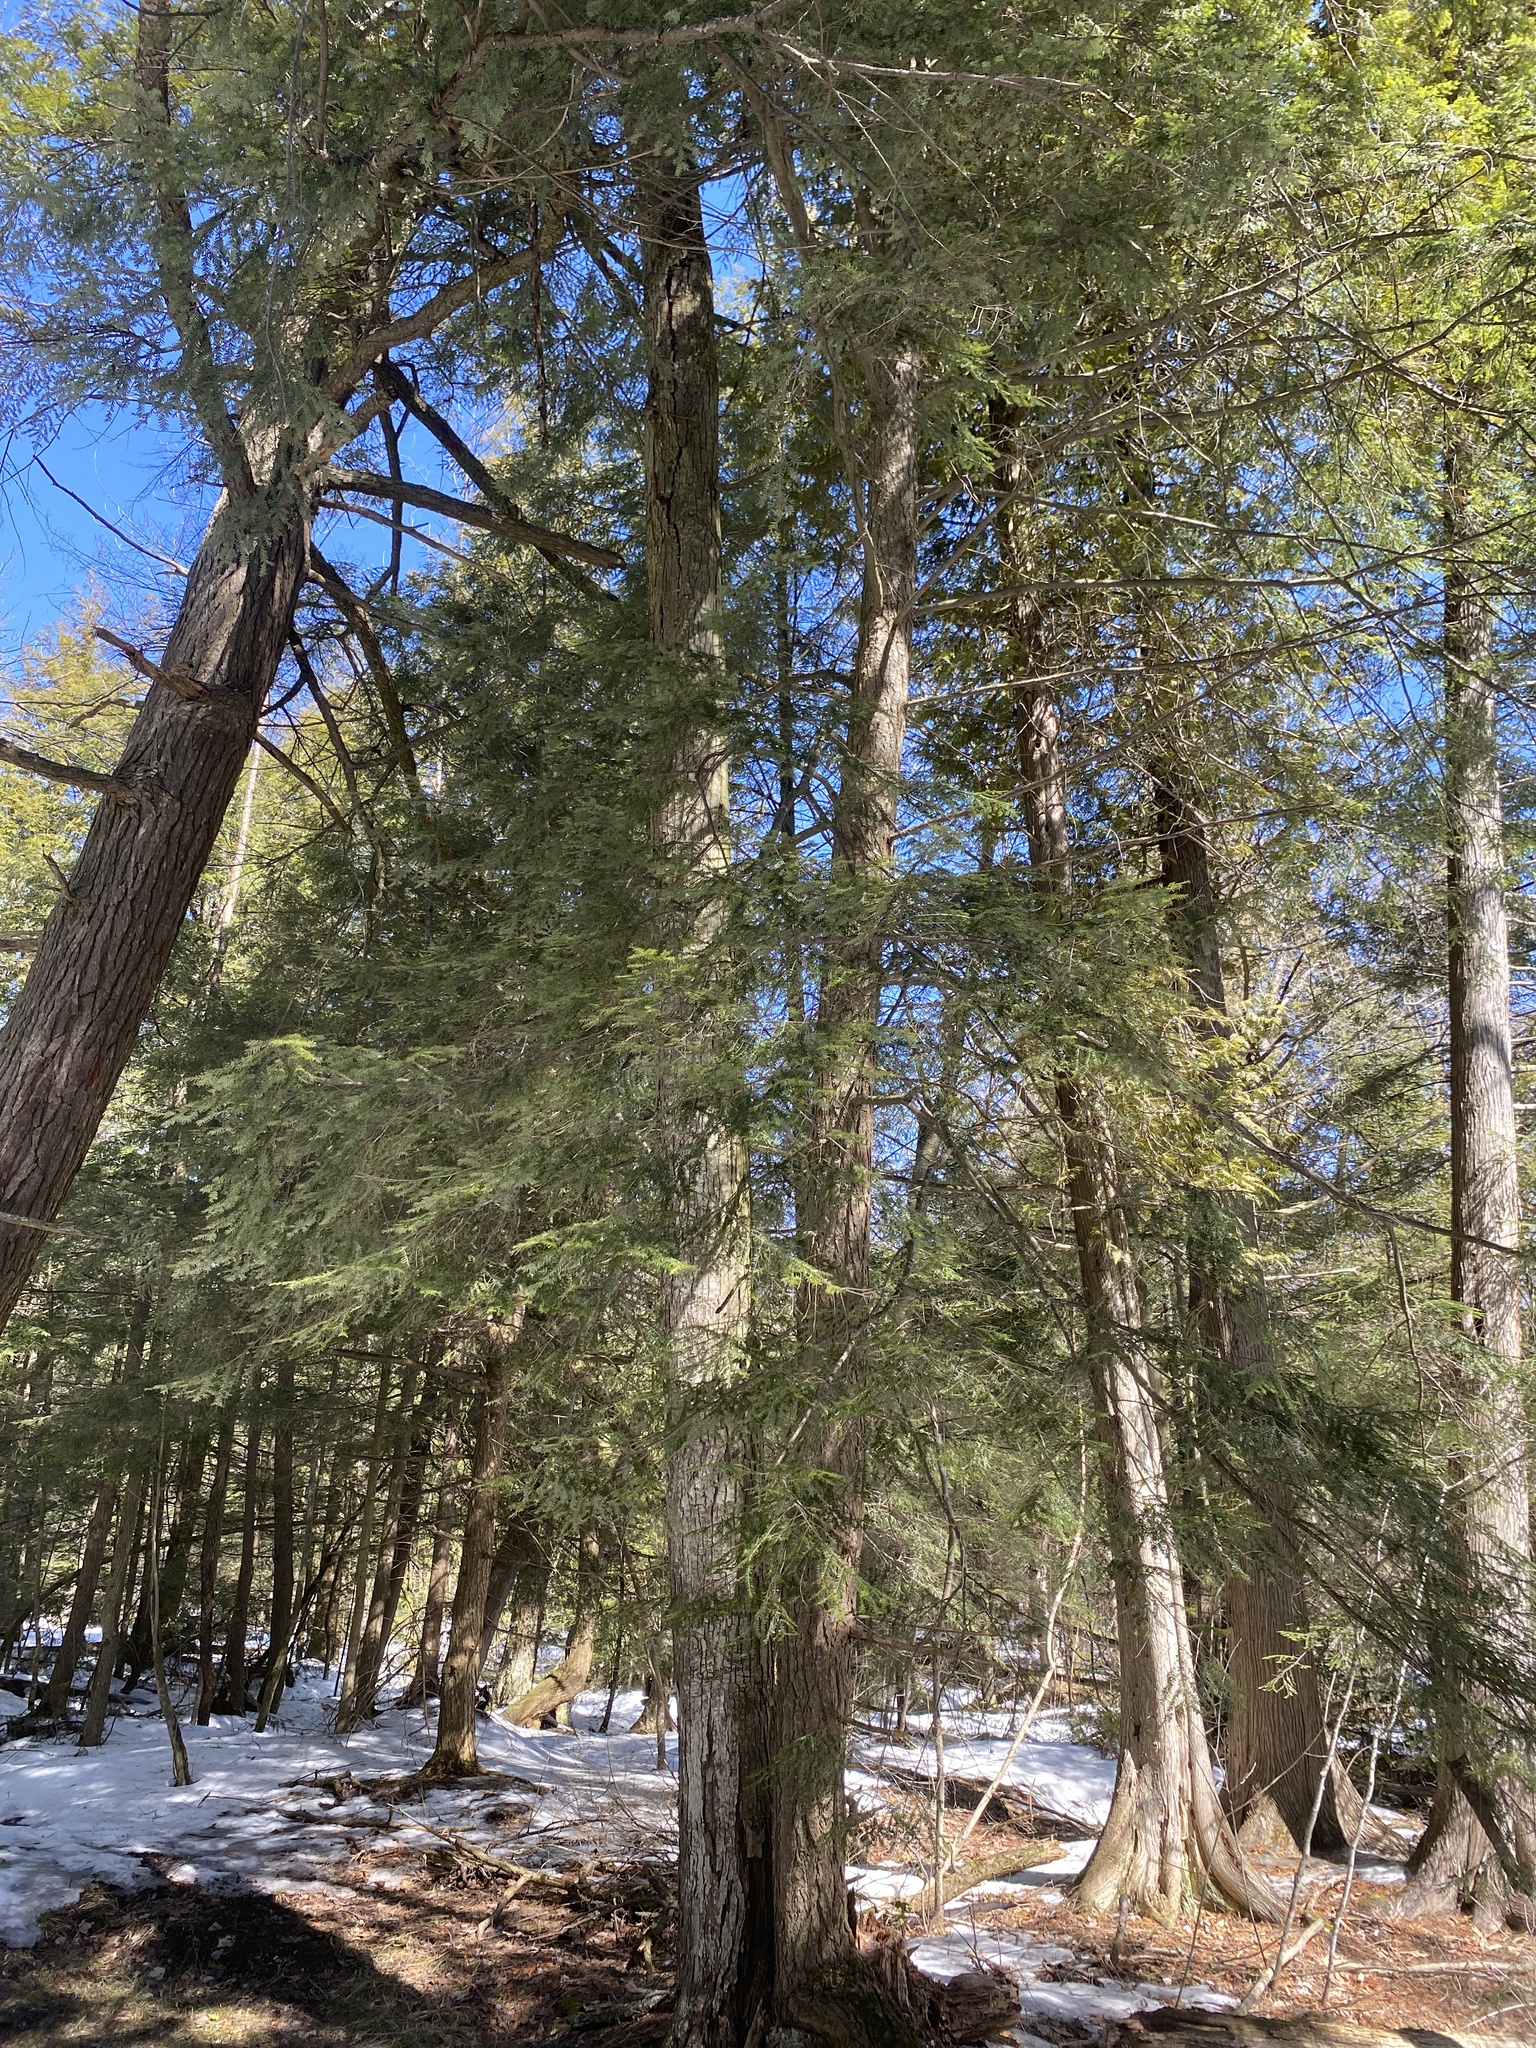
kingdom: Plantae
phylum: Tracheophyta
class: Pinopsida
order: Pinales
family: Pinaceae
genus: Tsuga
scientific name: Tsuga canadensis
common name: Eastern hemlock
